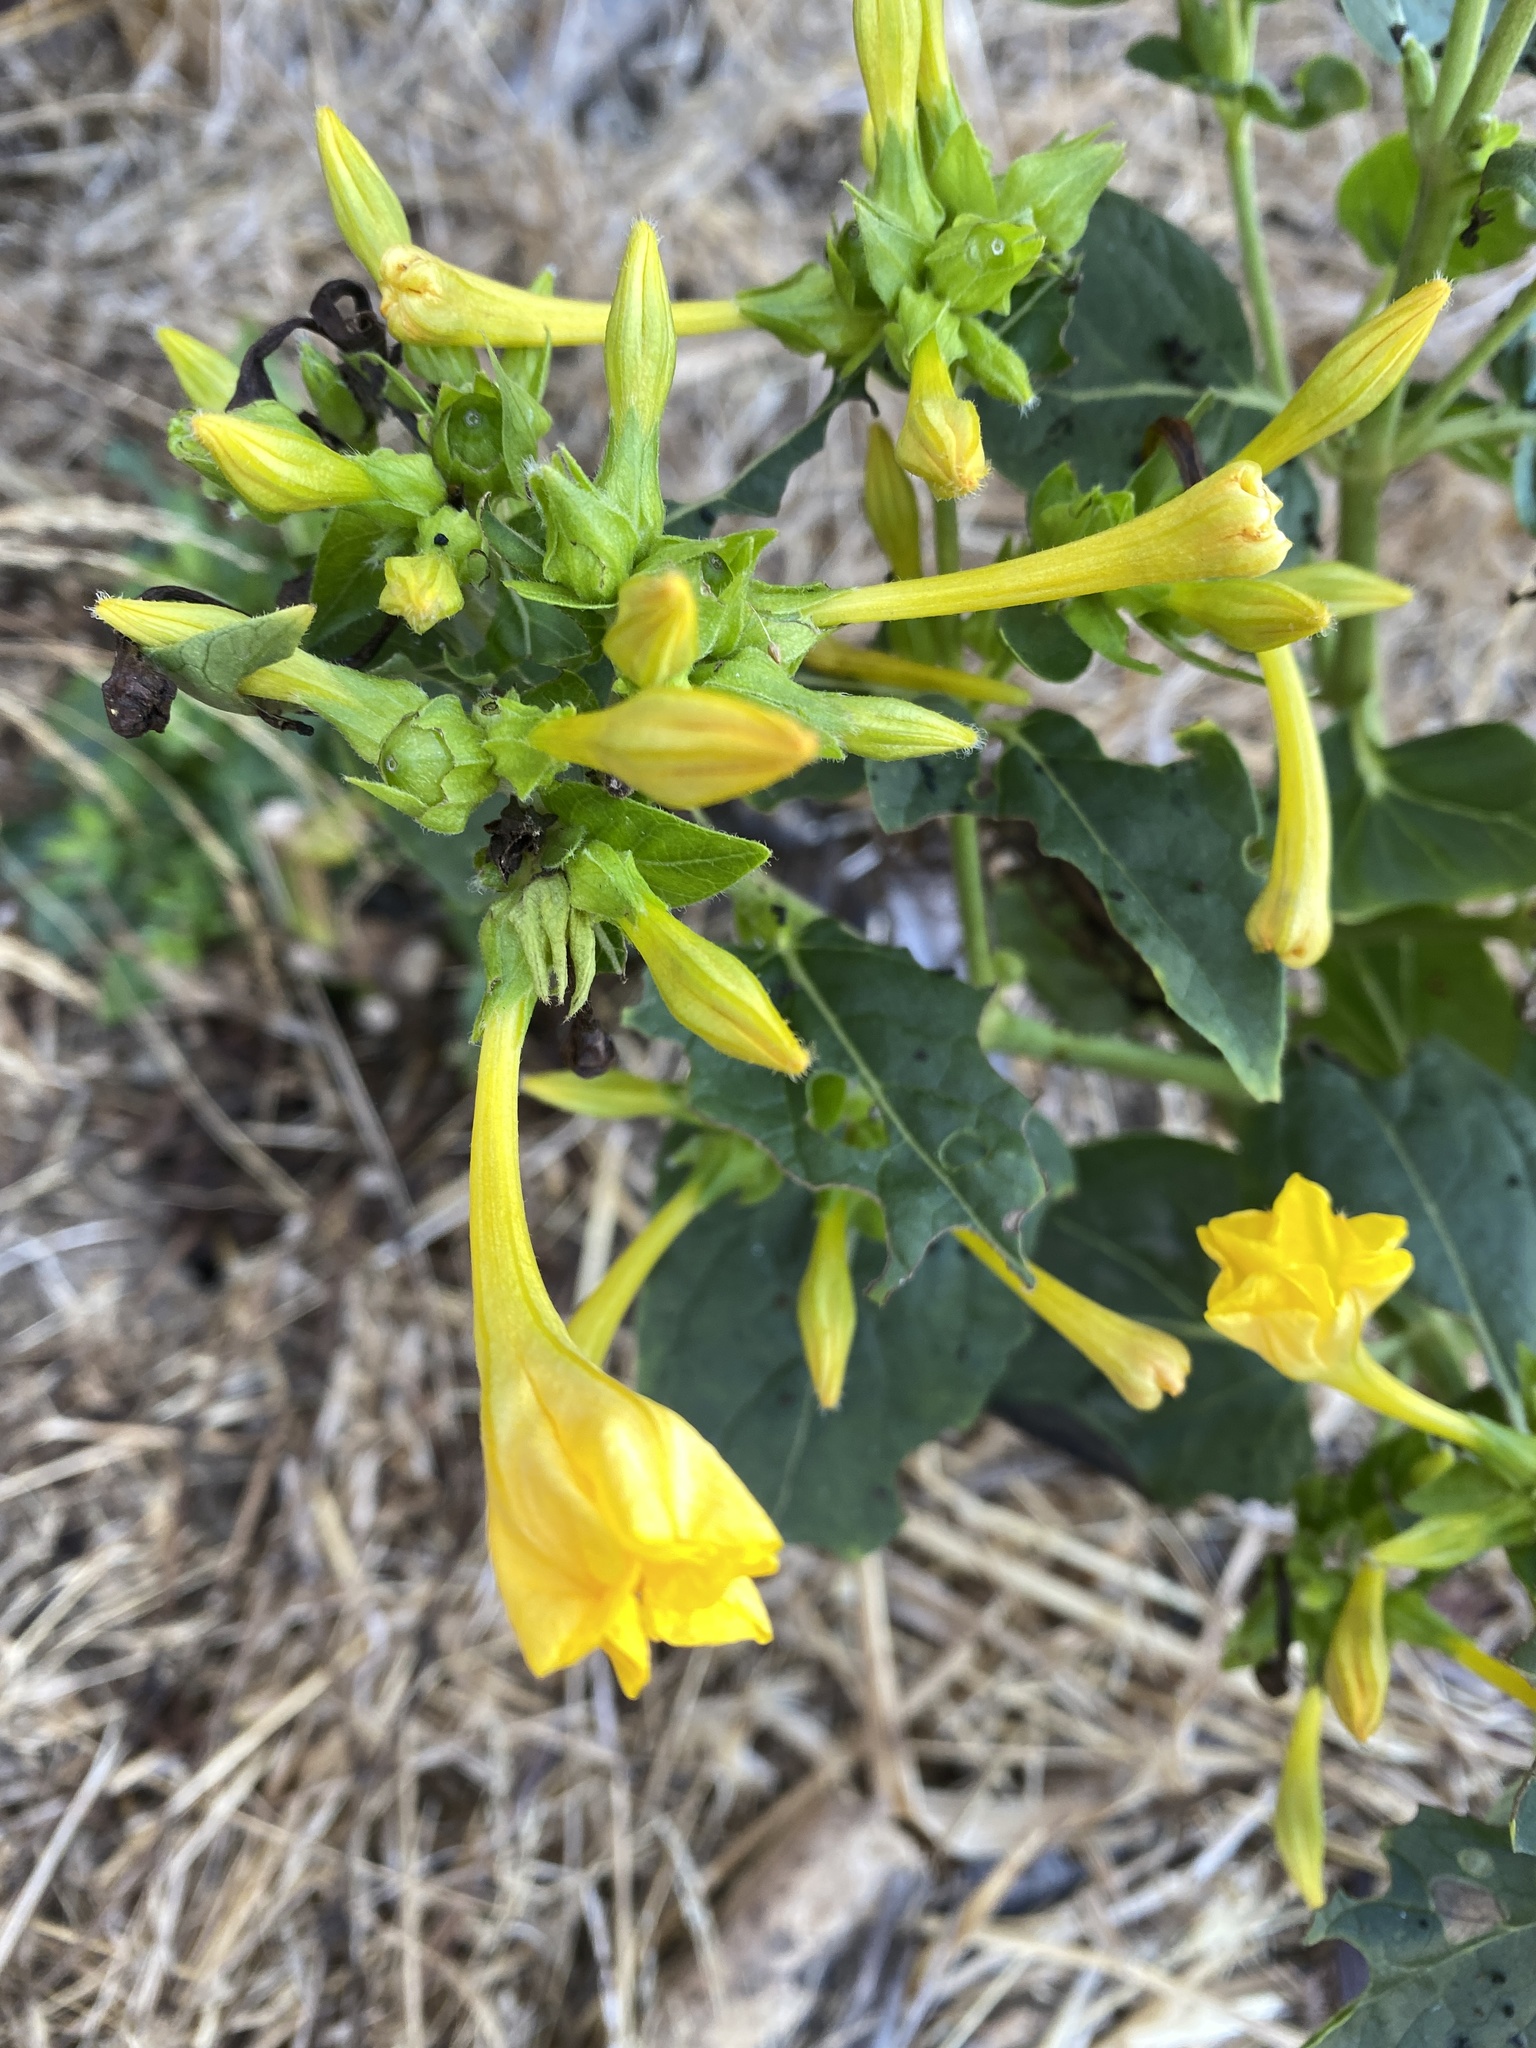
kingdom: Plantae
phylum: Tracheophyta
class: Magnoliopsida
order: Caryophyllales
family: Nyctaginaceae
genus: Mirabilis
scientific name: Mirabilis jalapa
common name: Marvel-of-peru
